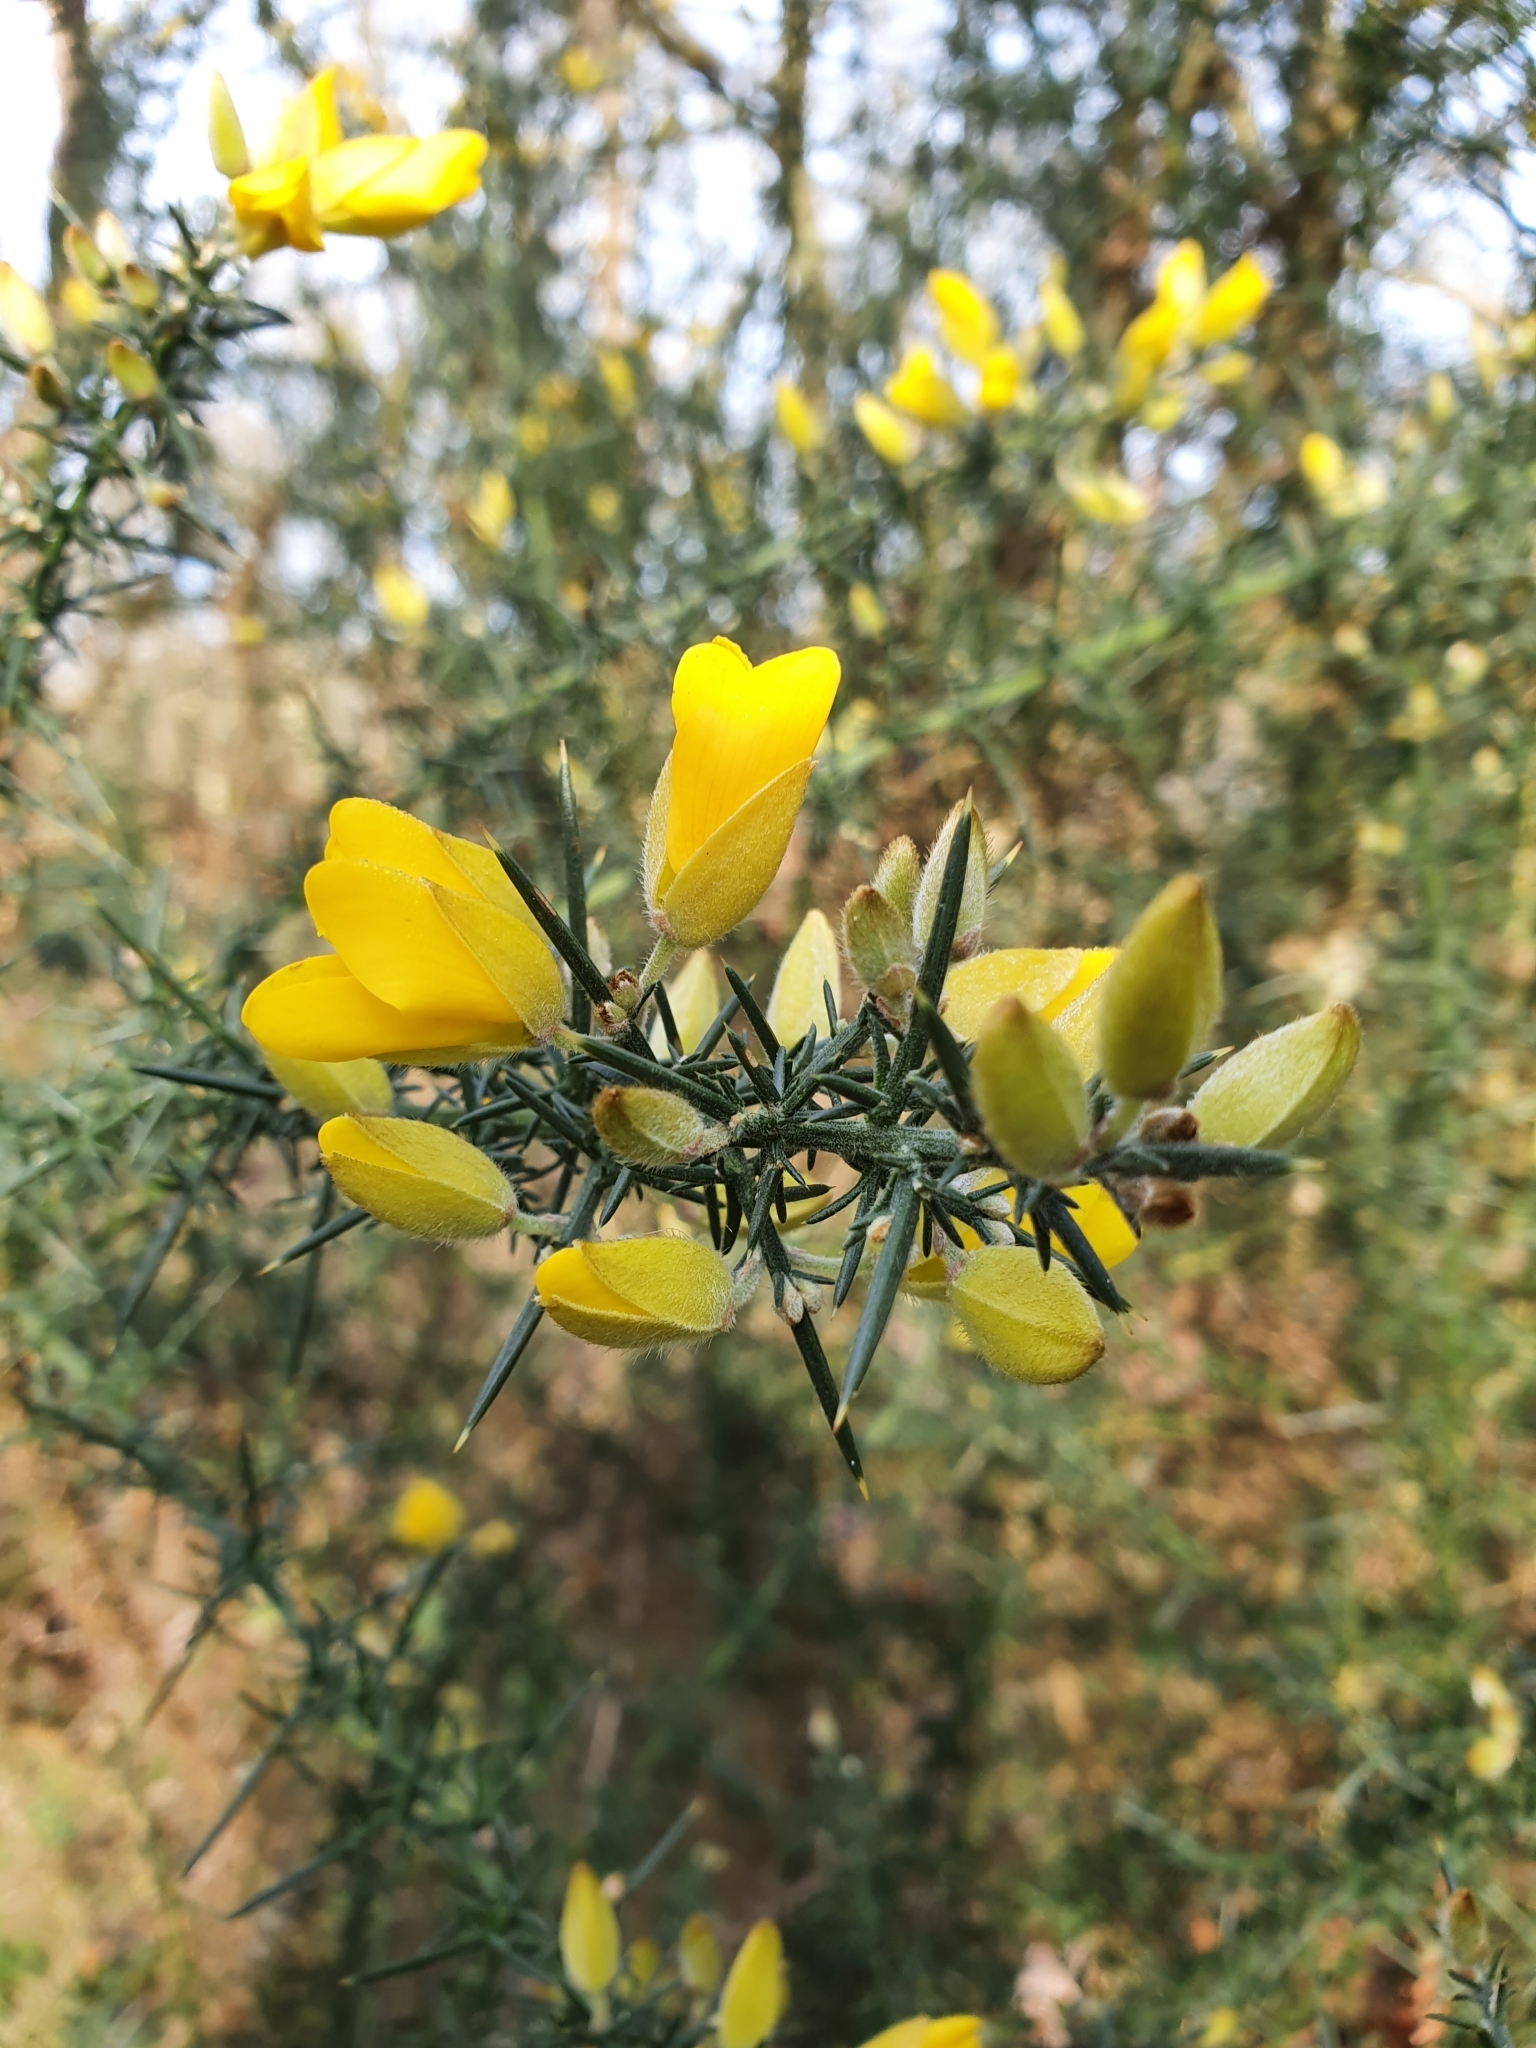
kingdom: Plantae
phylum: Tracheophyta
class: Magnoliopsida
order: Fabales
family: Fabaceae
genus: Ulex
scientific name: Ulex europaeus
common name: Common gorse
